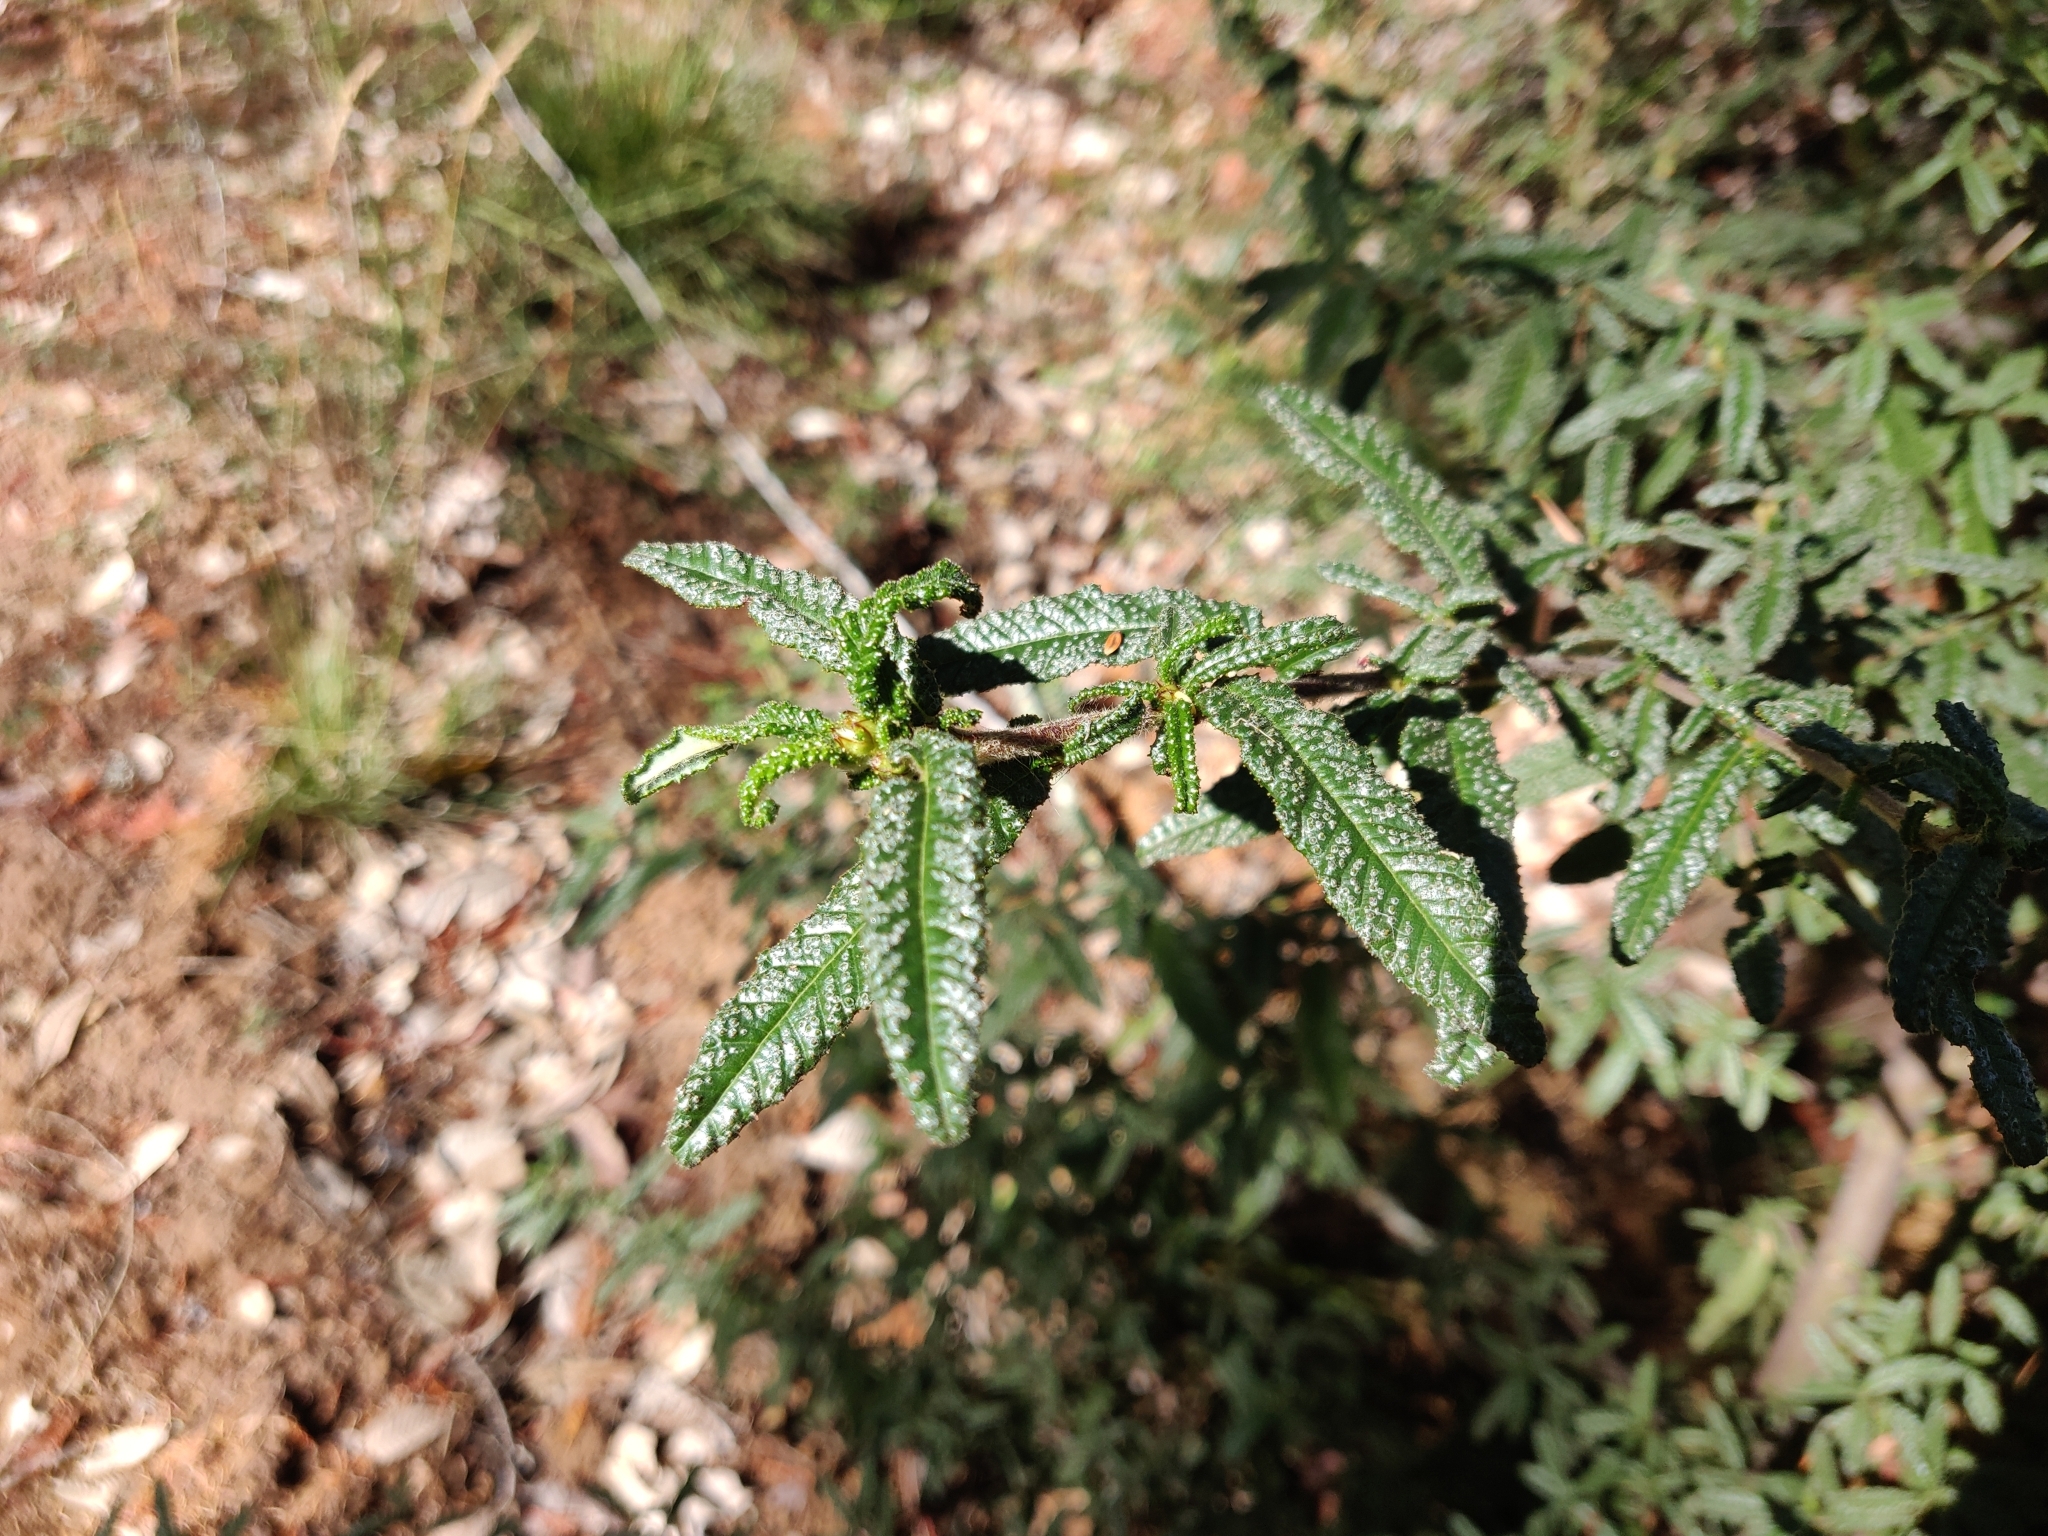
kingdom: Plantae
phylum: Tracheophyta
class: Magnoliopsida
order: Rosales
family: Rhamnaceae
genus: Ceanothus
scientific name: Ceanothus papillosus
